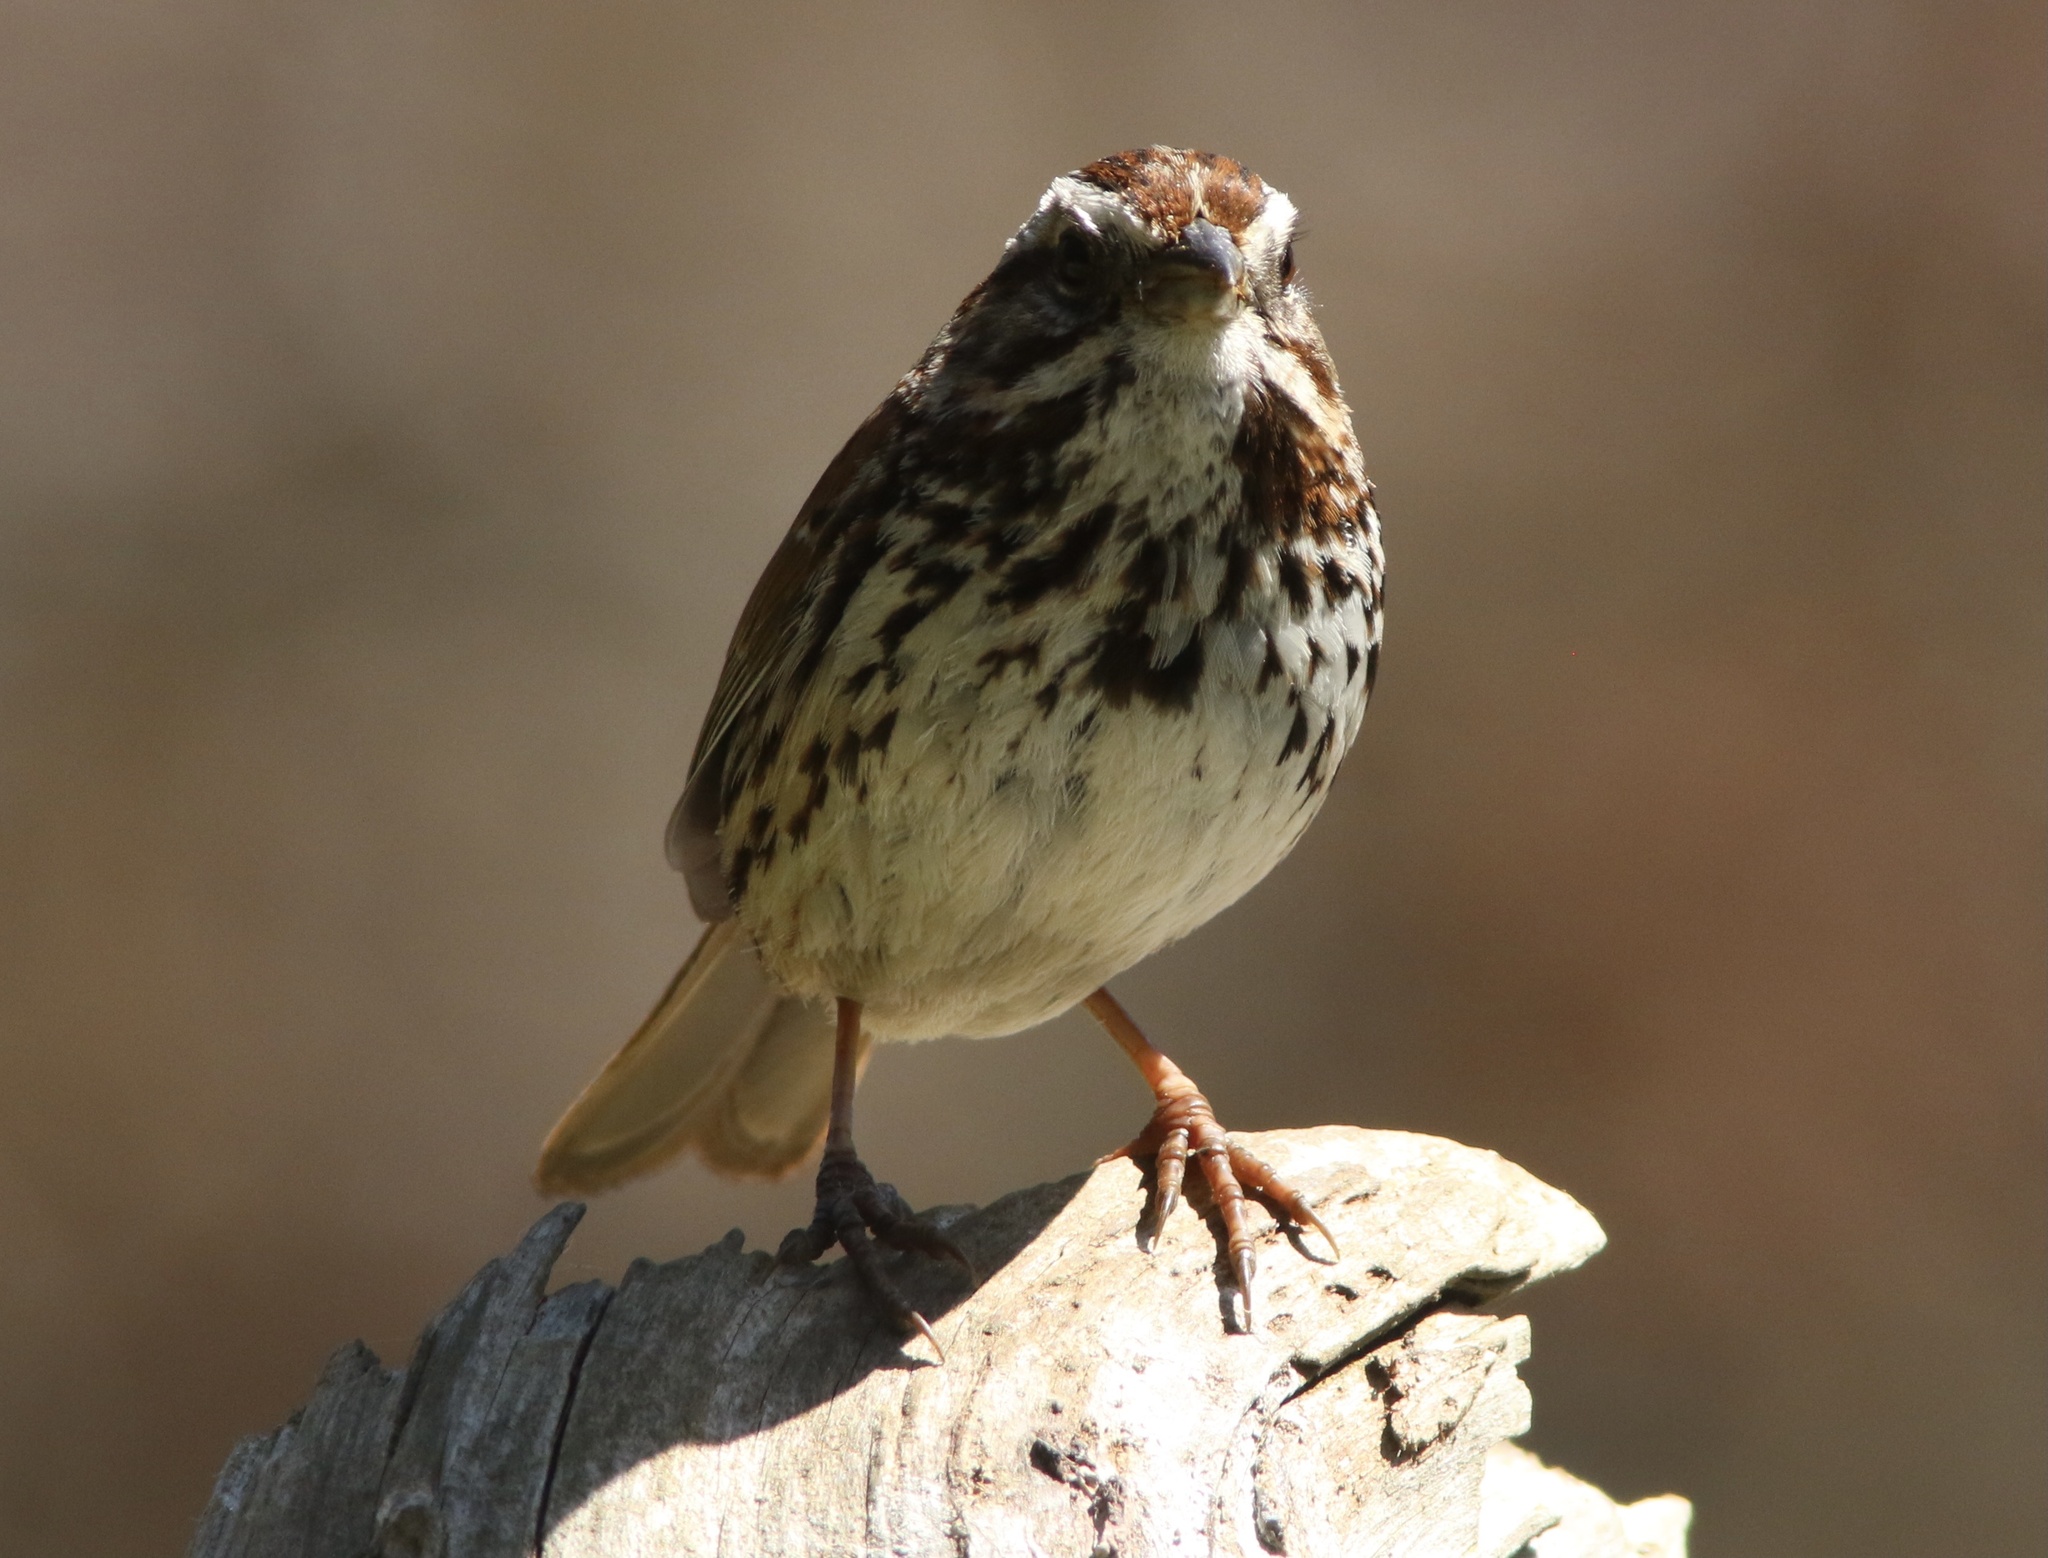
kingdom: Animalia
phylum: Chordata
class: Aves
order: Passeriformes
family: Passerellidae
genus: Melospiza
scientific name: Melospiza melodia
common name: Song sparrow
